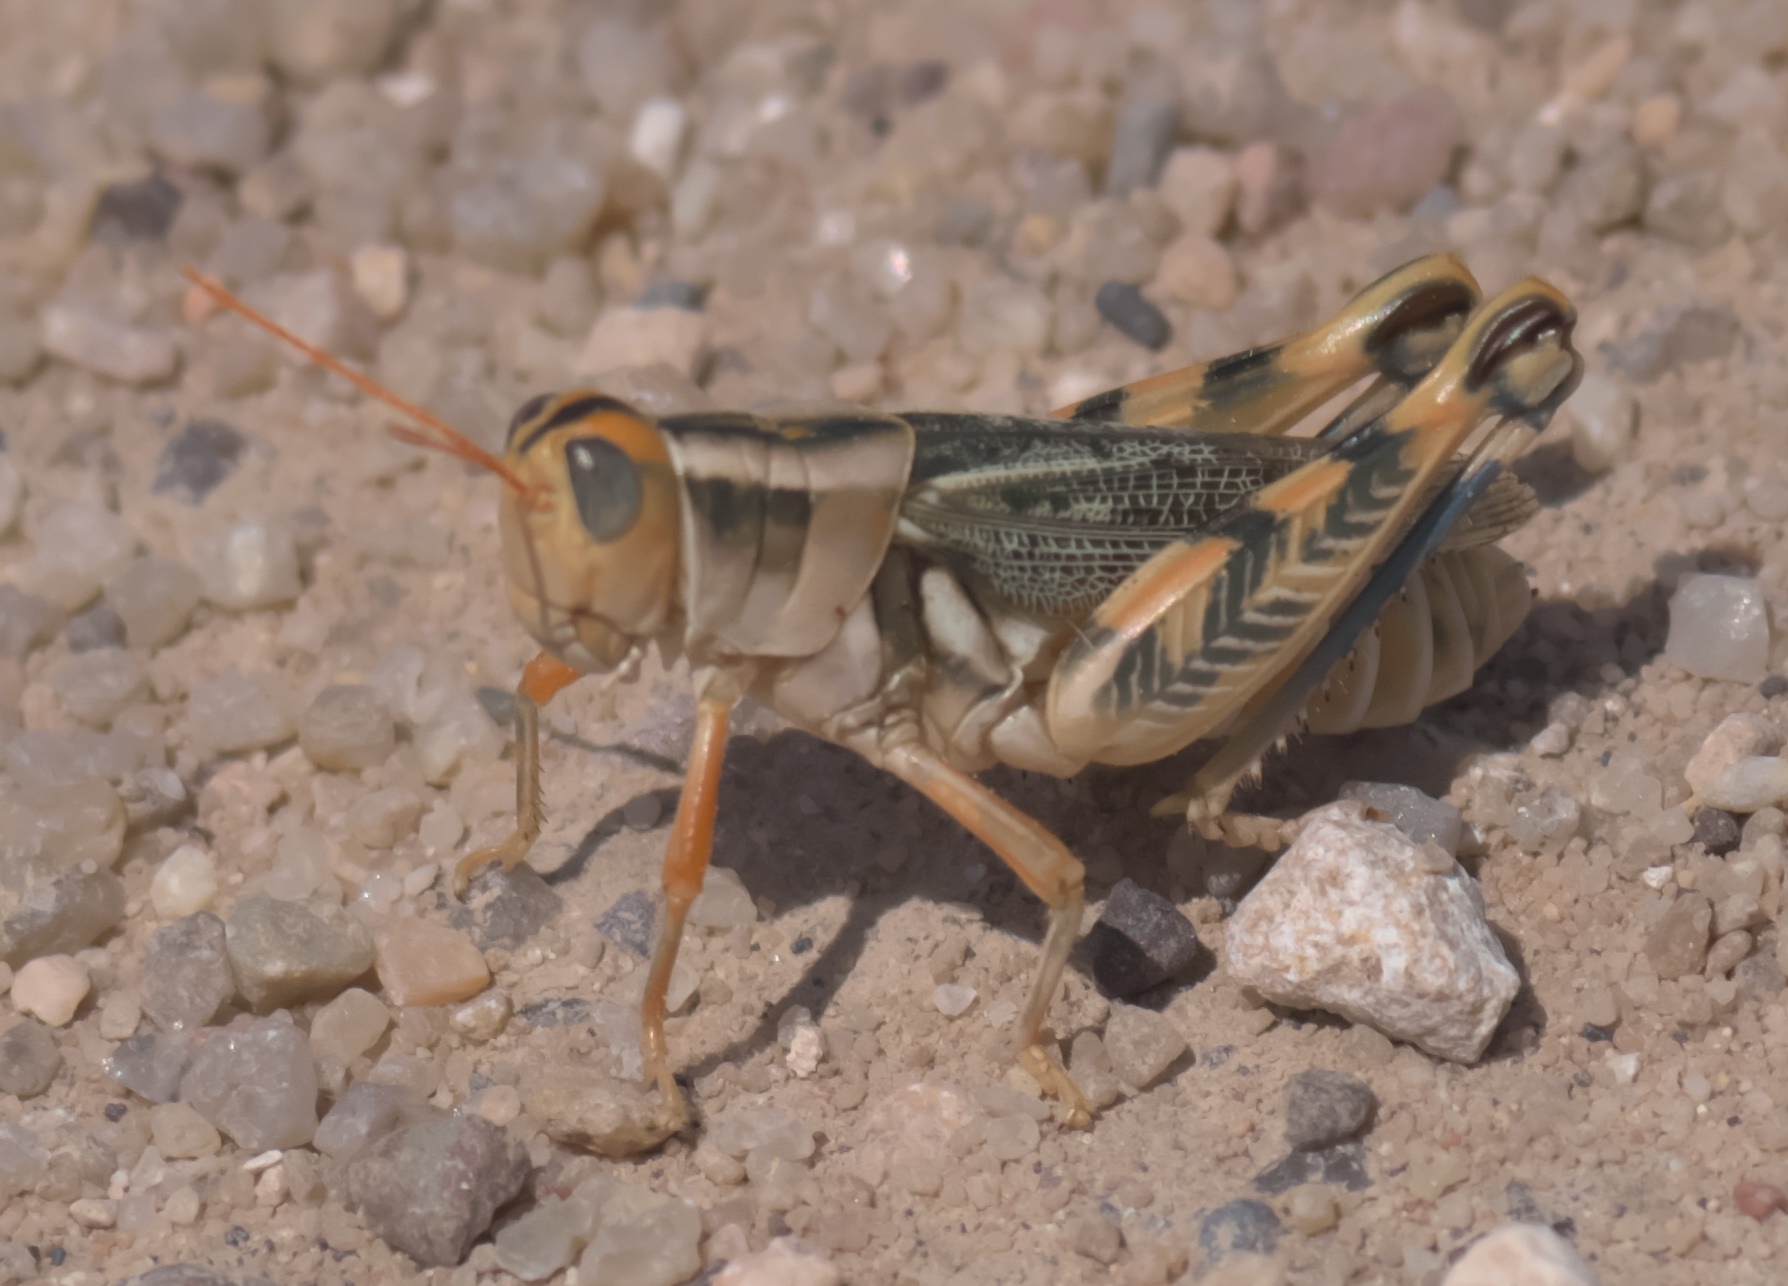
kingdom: Animalia
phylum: Arthropoda
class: Insecta
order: Orthoptera
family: Acrididae
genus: Aeoloplides
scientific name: Aeoloplides turnbulli
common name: Russianthistle grasshopper
